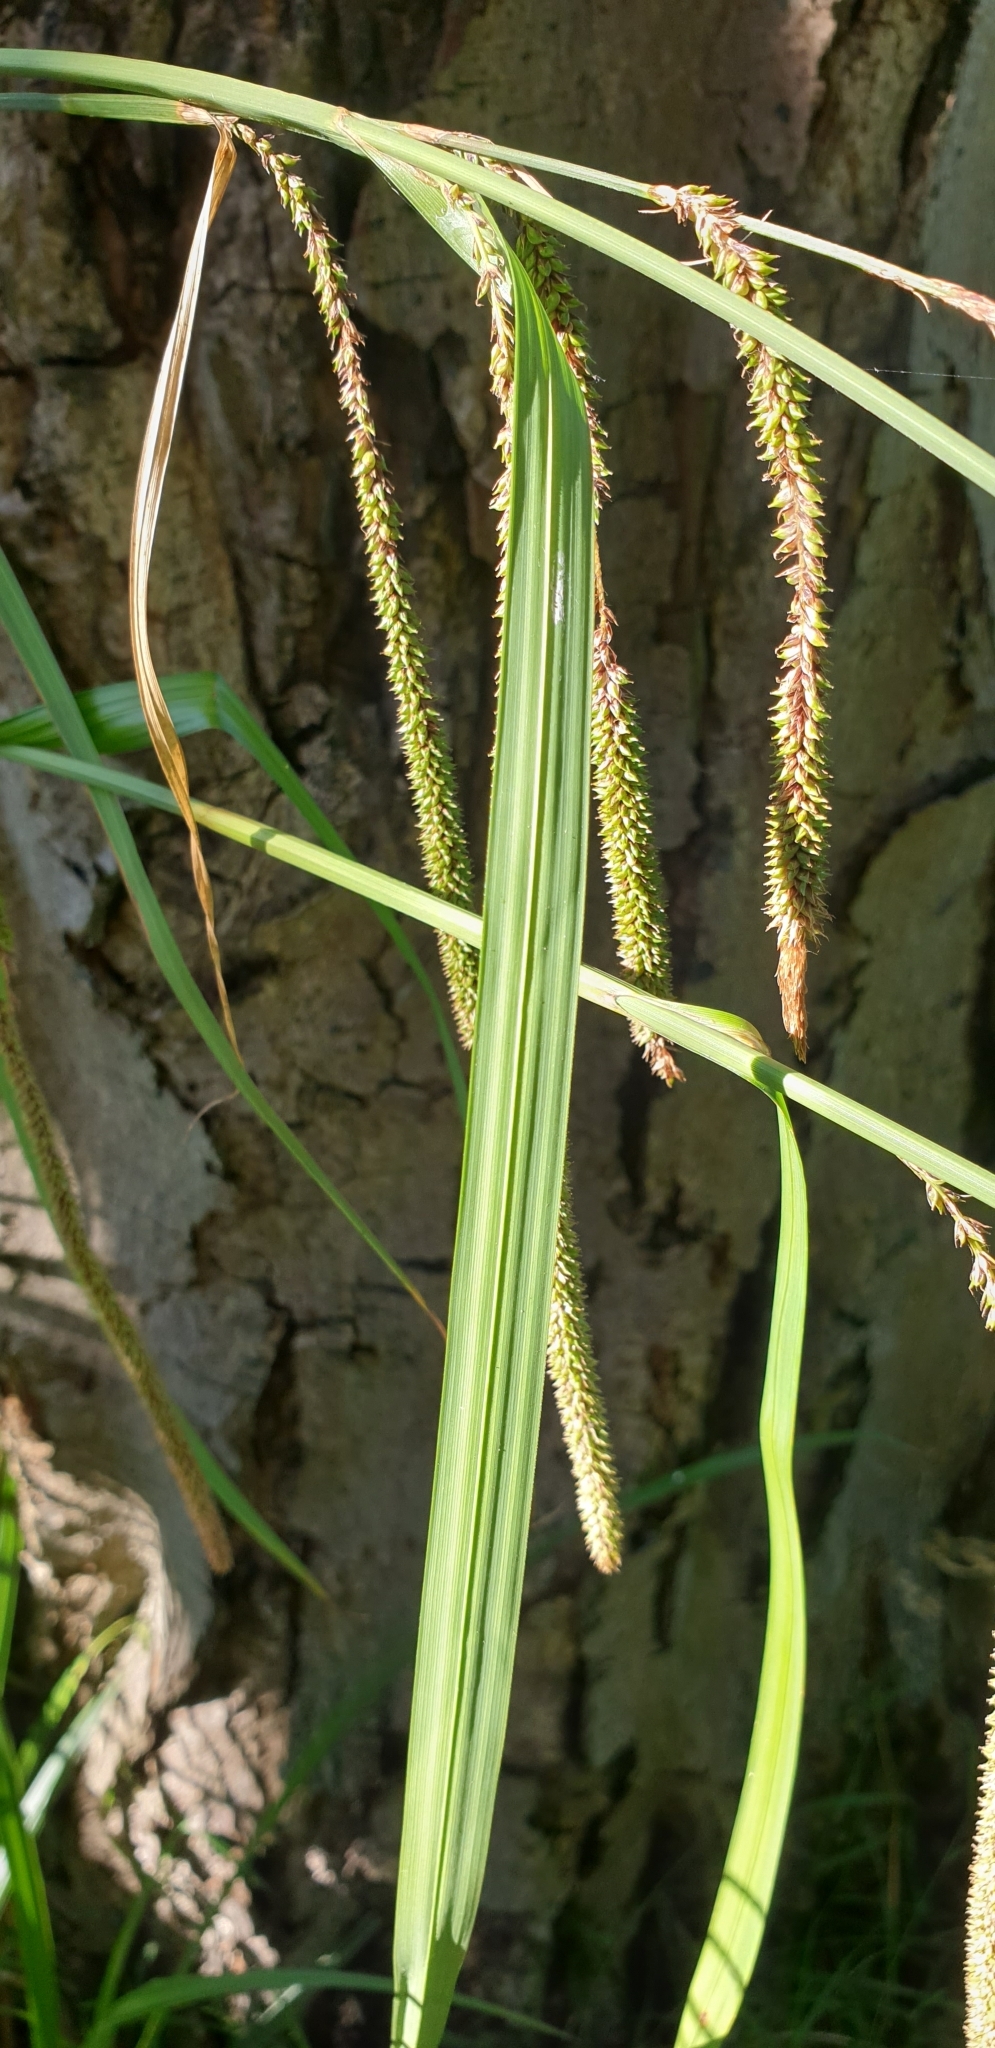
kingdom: Plantae
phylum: Tracheophyta
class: Liliopsida
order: Poales
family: Cyperaceae
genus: Carex
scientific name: Carex pendula
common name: Pendulous sedge
